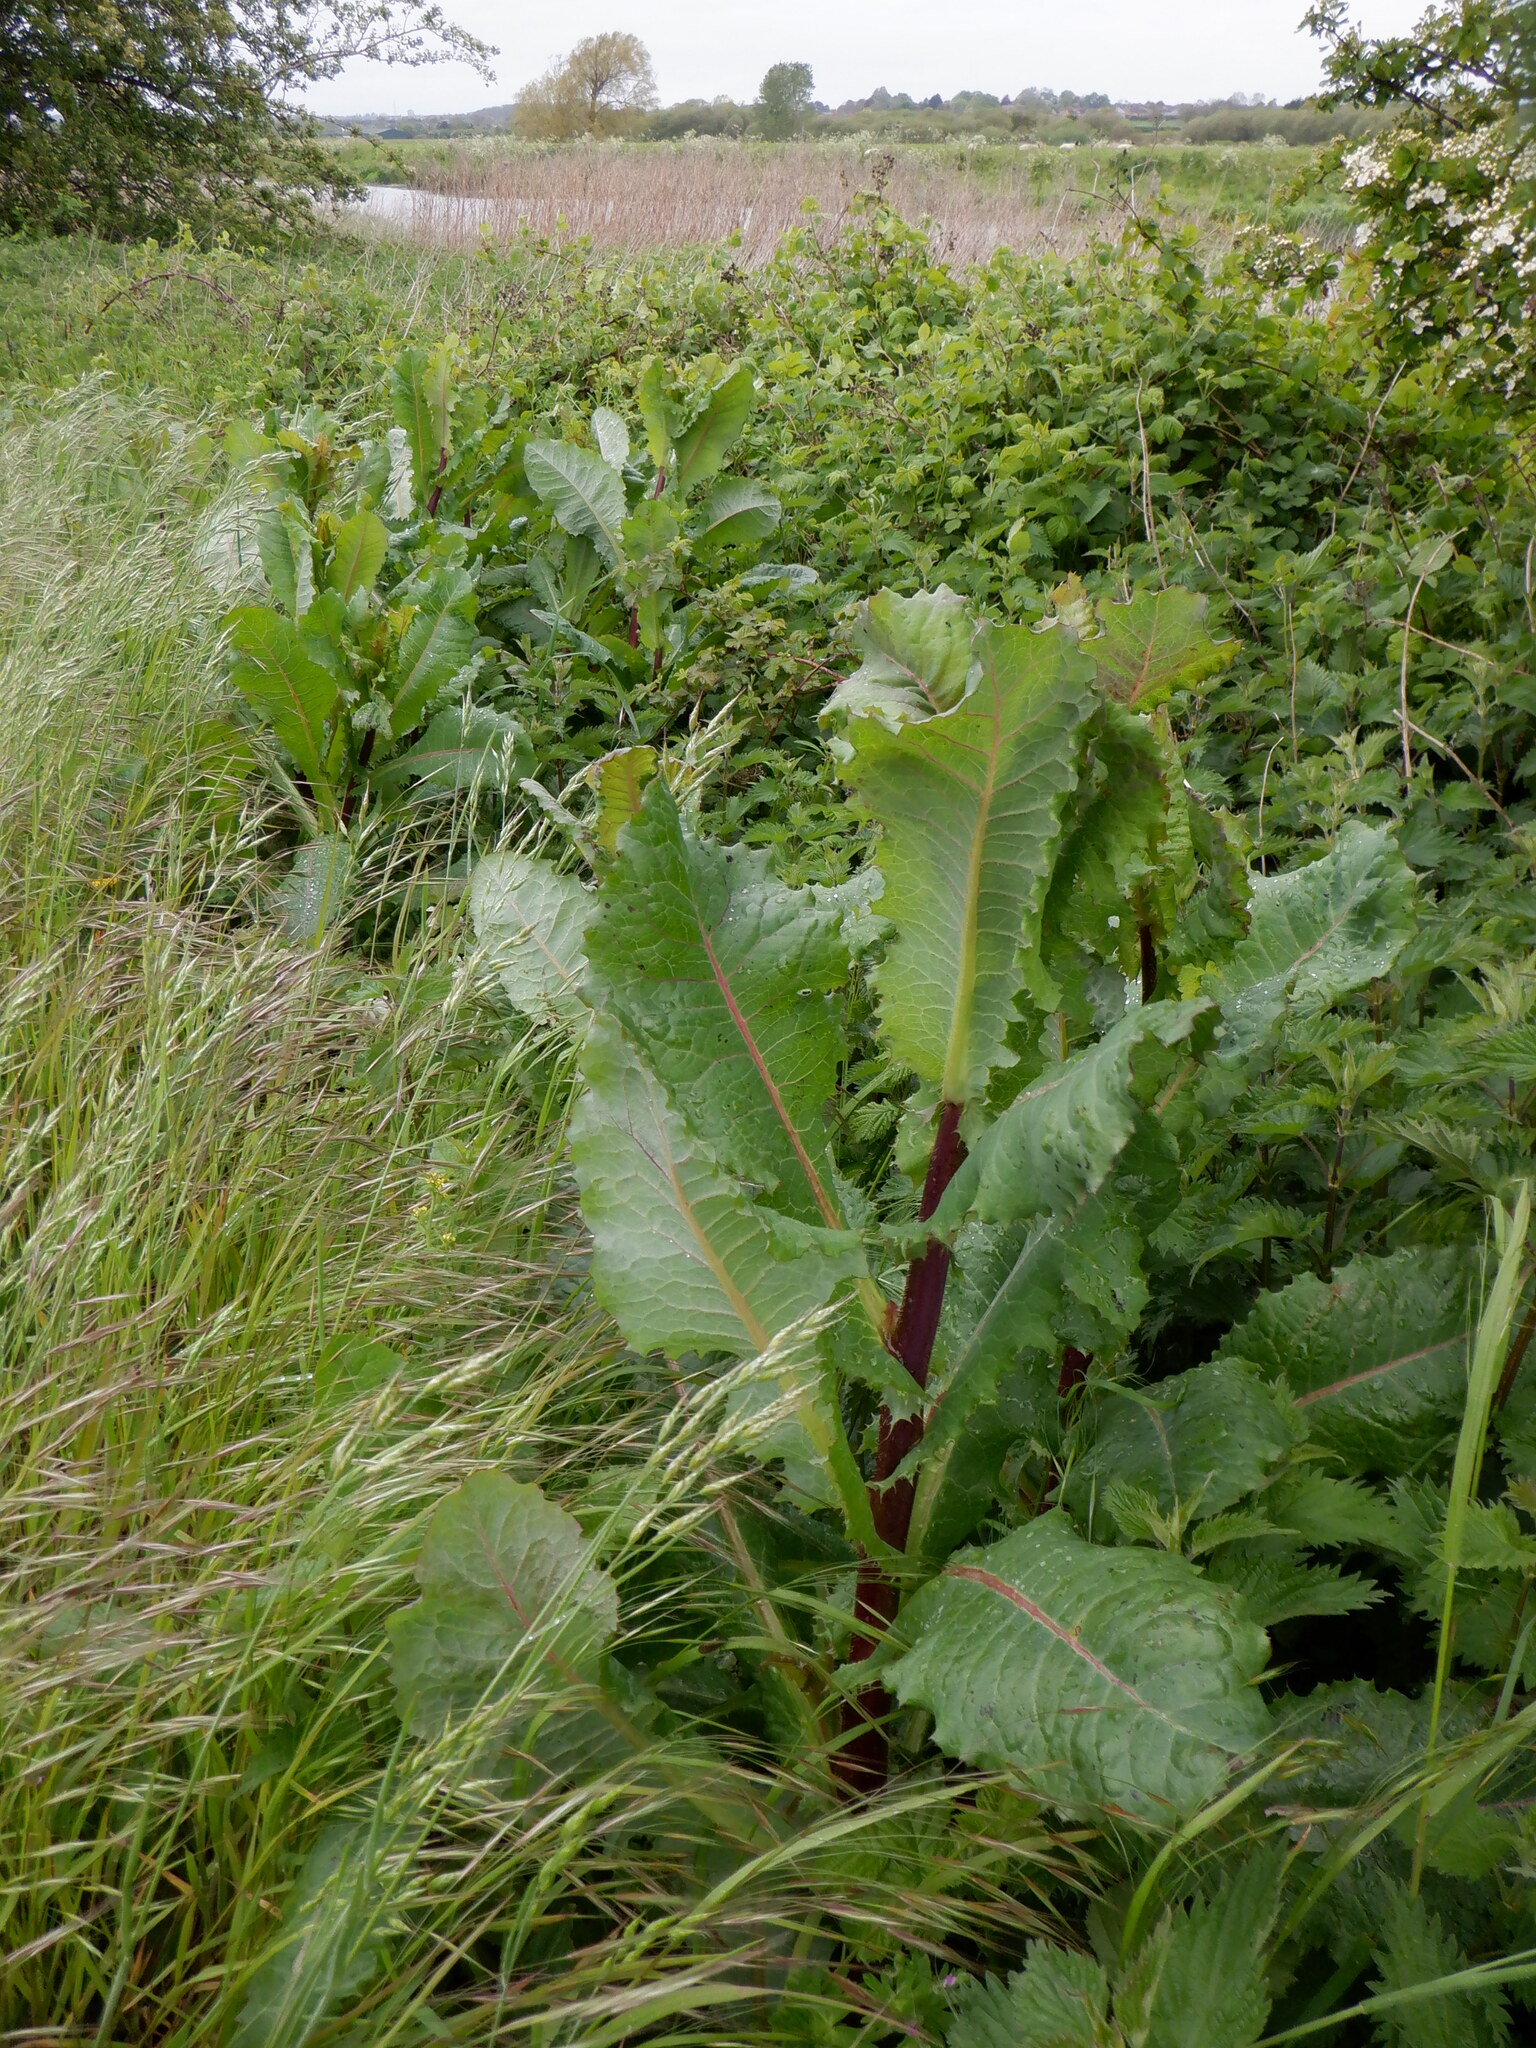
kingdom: Plantae
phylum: Tracheophyta
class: Magnoliopsida
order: Asterales
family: Asteraceae
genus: Lactuca
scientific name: Lactuca virosa
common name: Great lettuce
